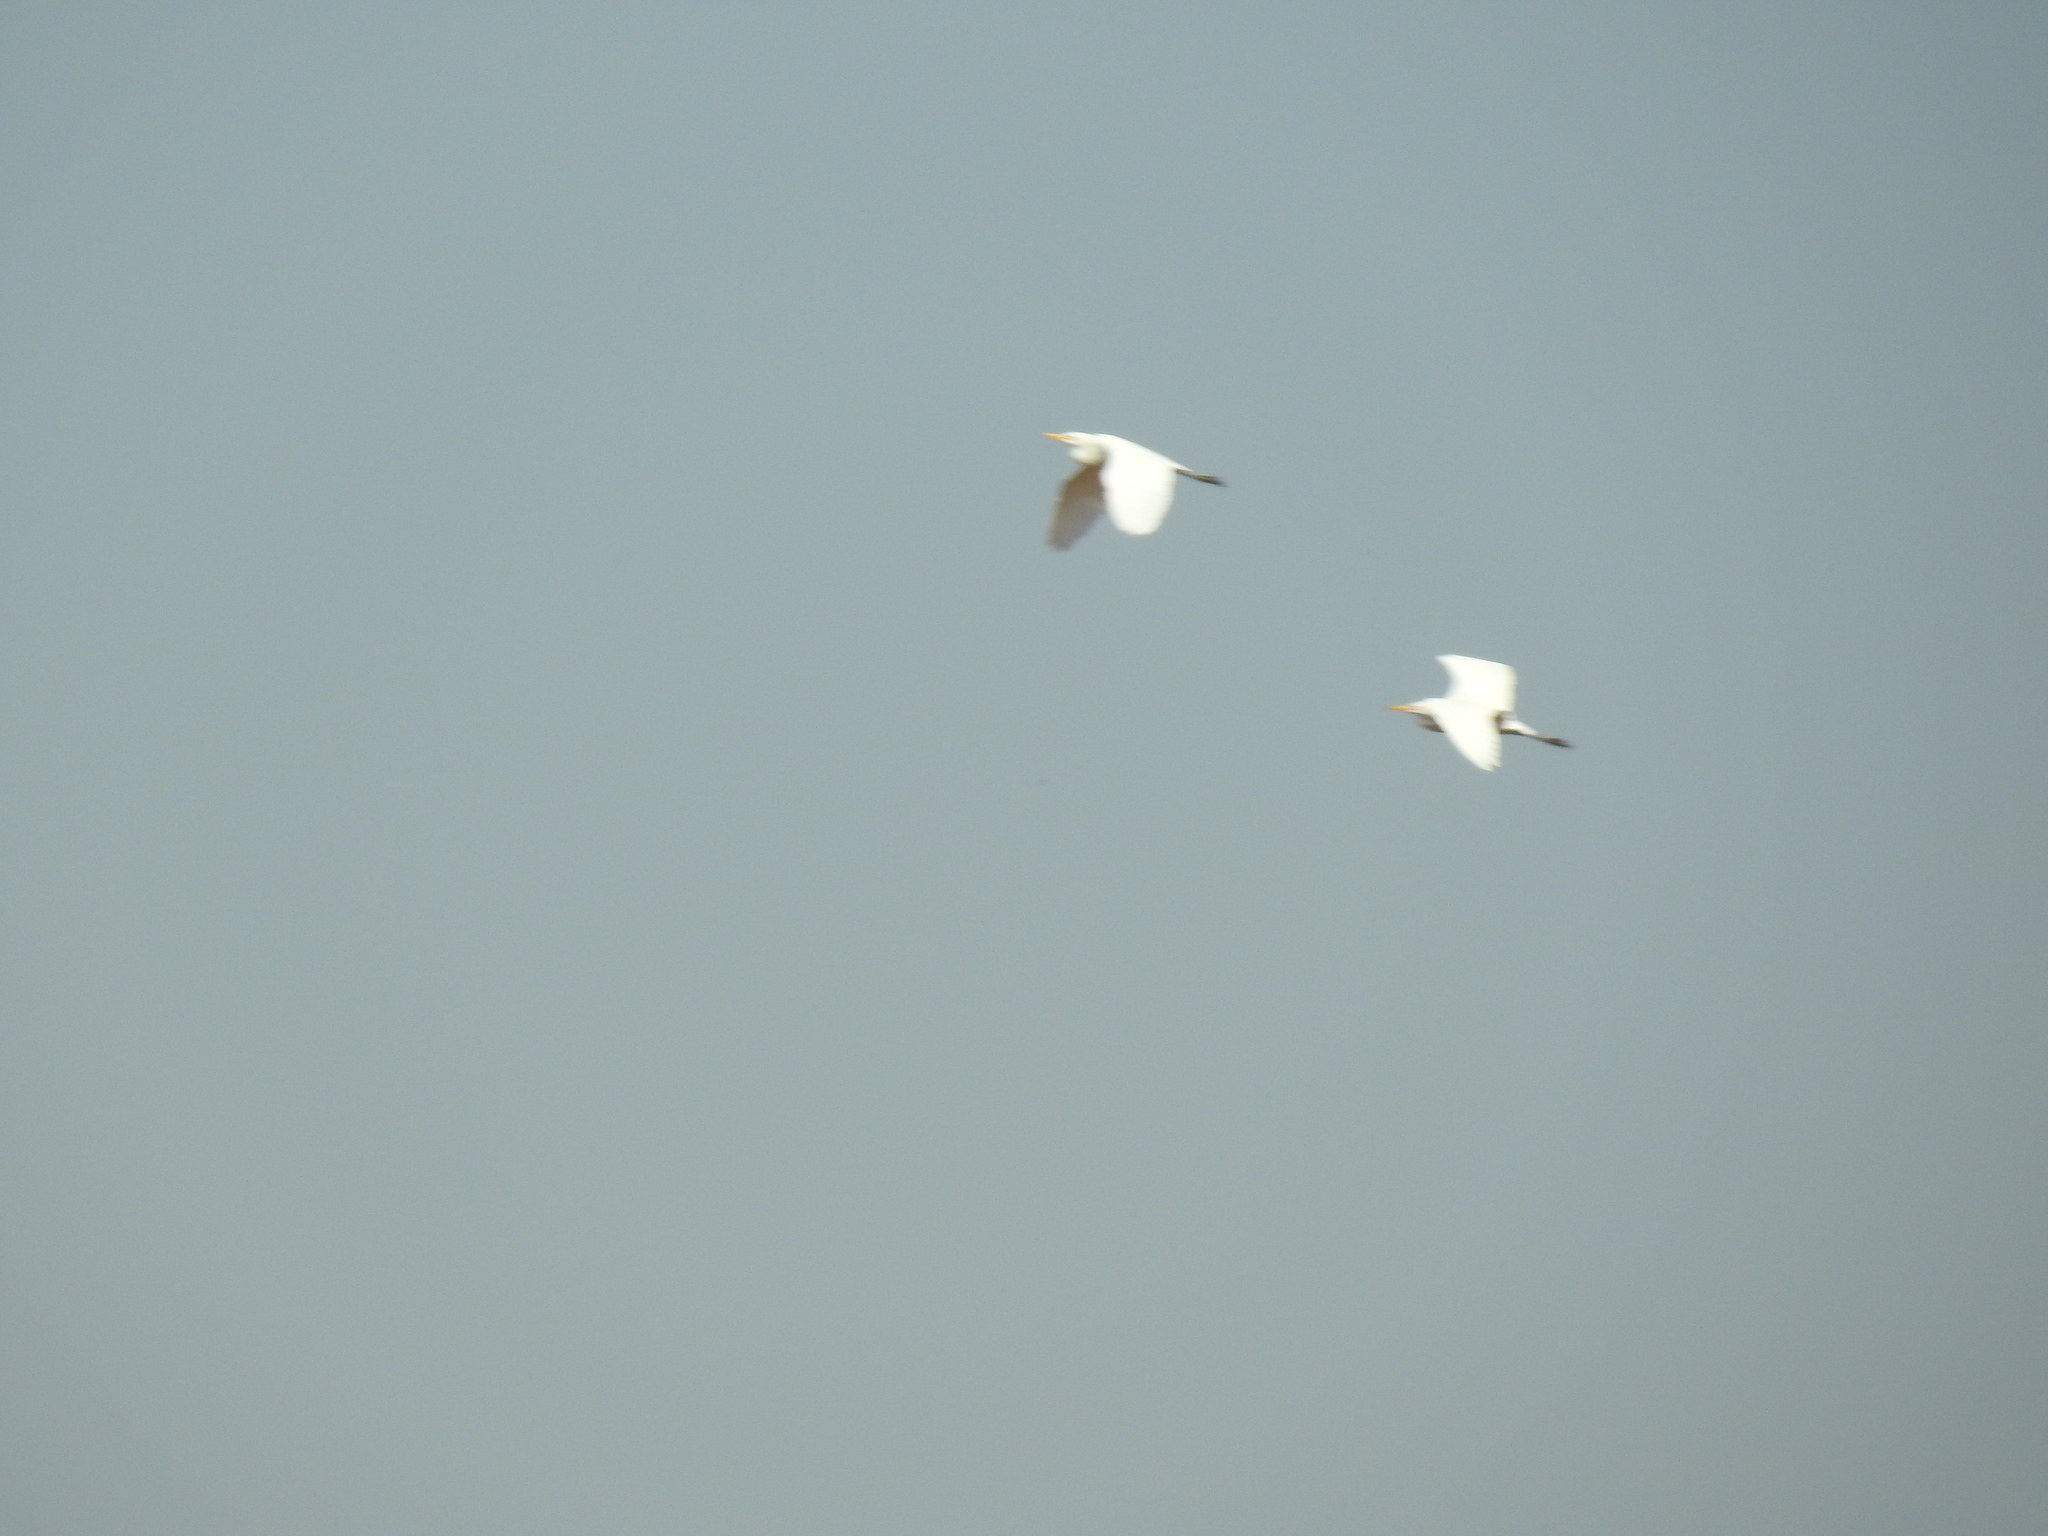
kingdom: Animalia
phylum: Chordata
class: Aves
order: Pelecaniformes
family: Ardeidae
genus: Bubulcus
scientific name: Bubulcus ibis
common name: Cattle egret
